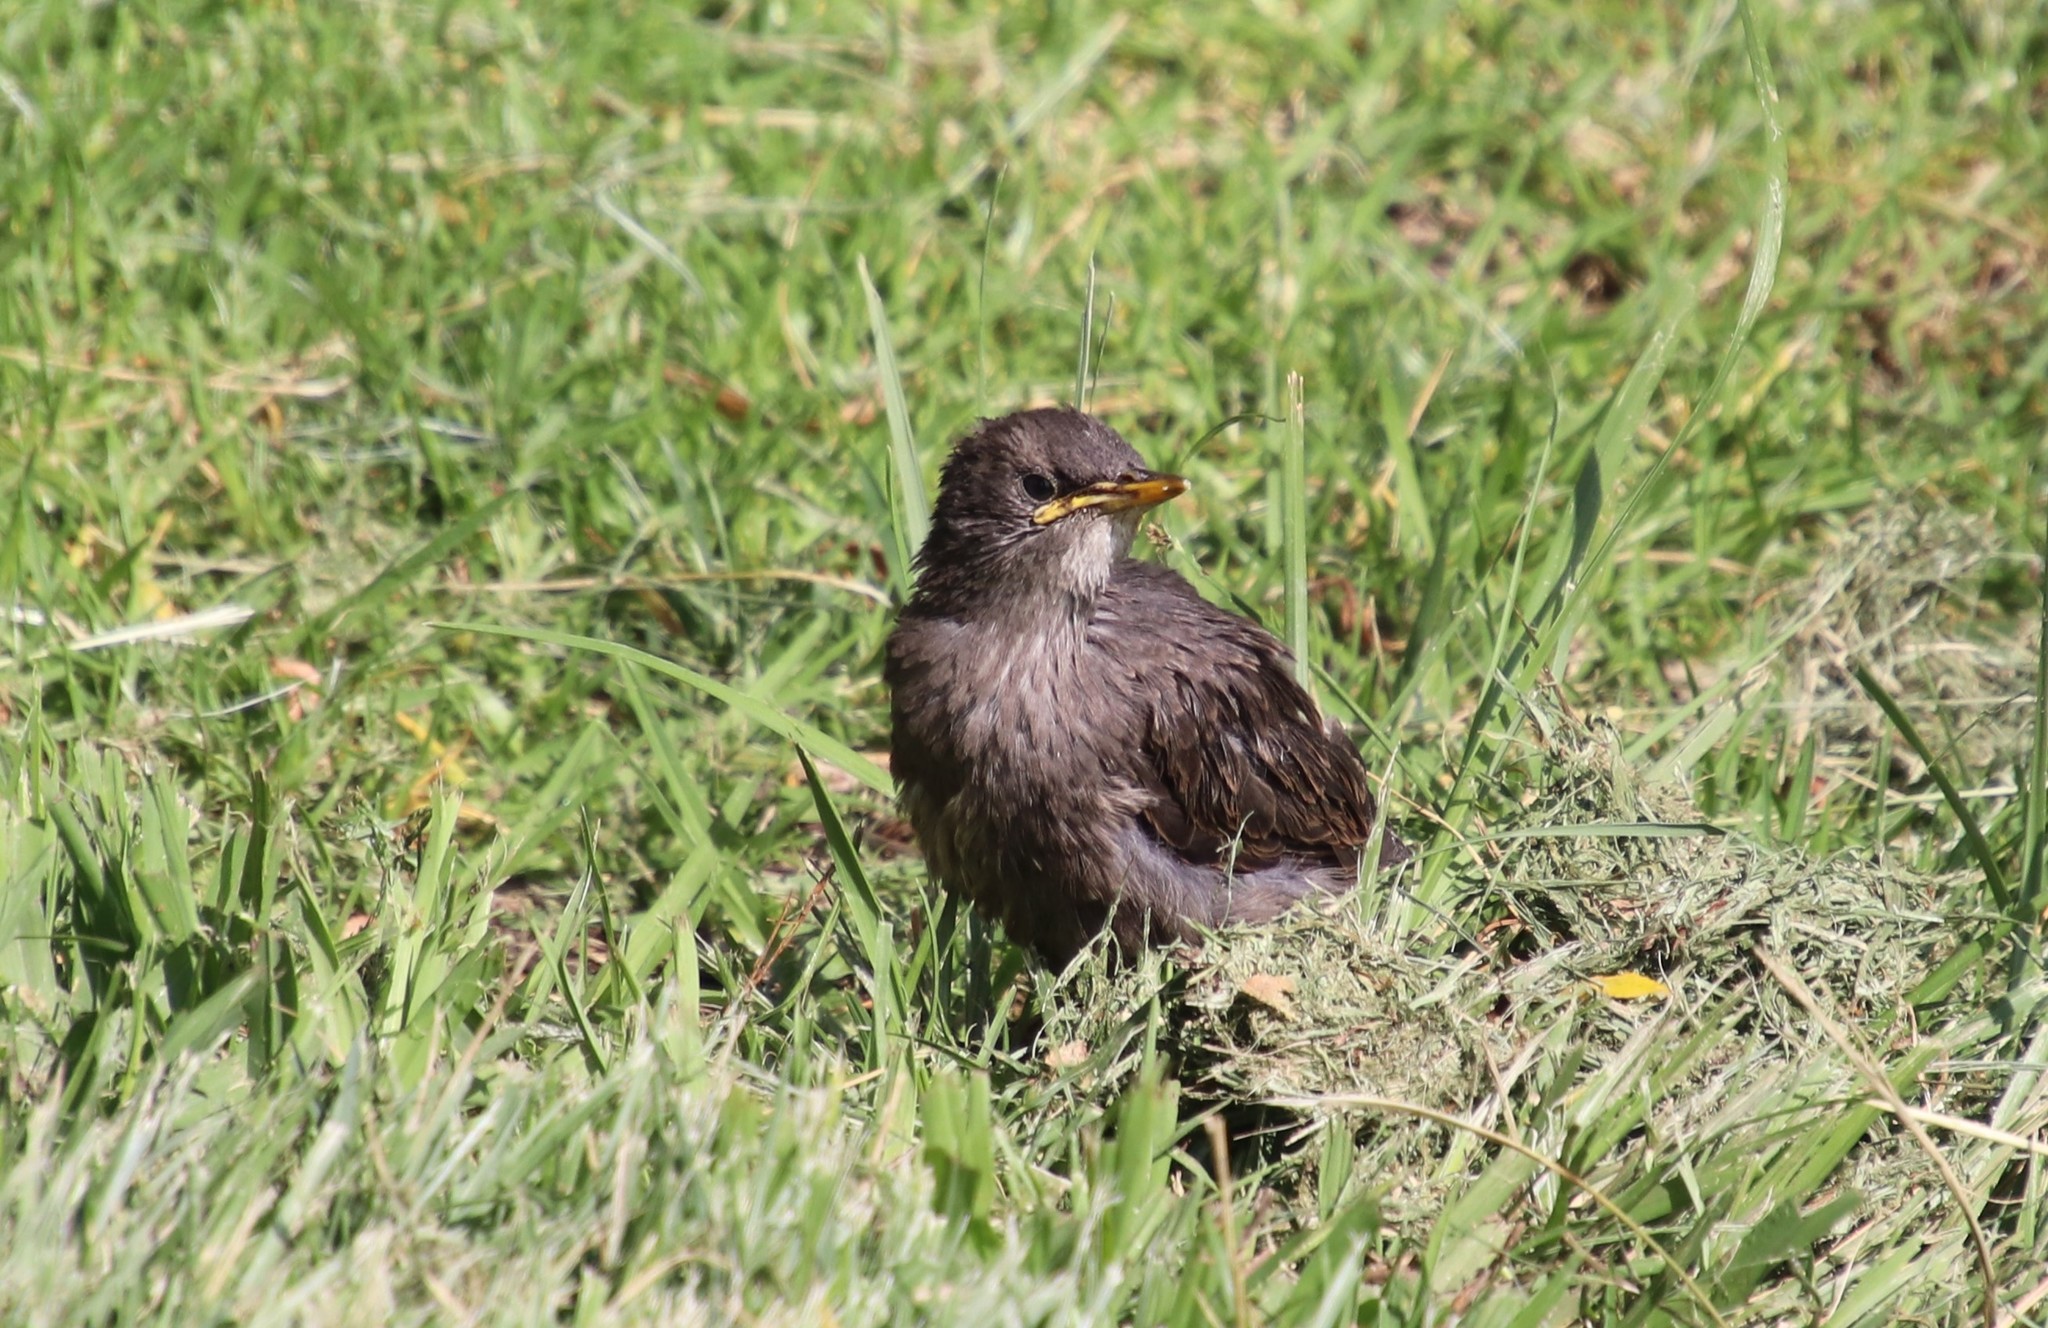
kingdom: Animalia
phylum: Chordata
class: Aves
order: Passeriformes
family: Sturnidae
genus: Sturnus
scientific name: Sturnus vulgaris
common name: Common starling
